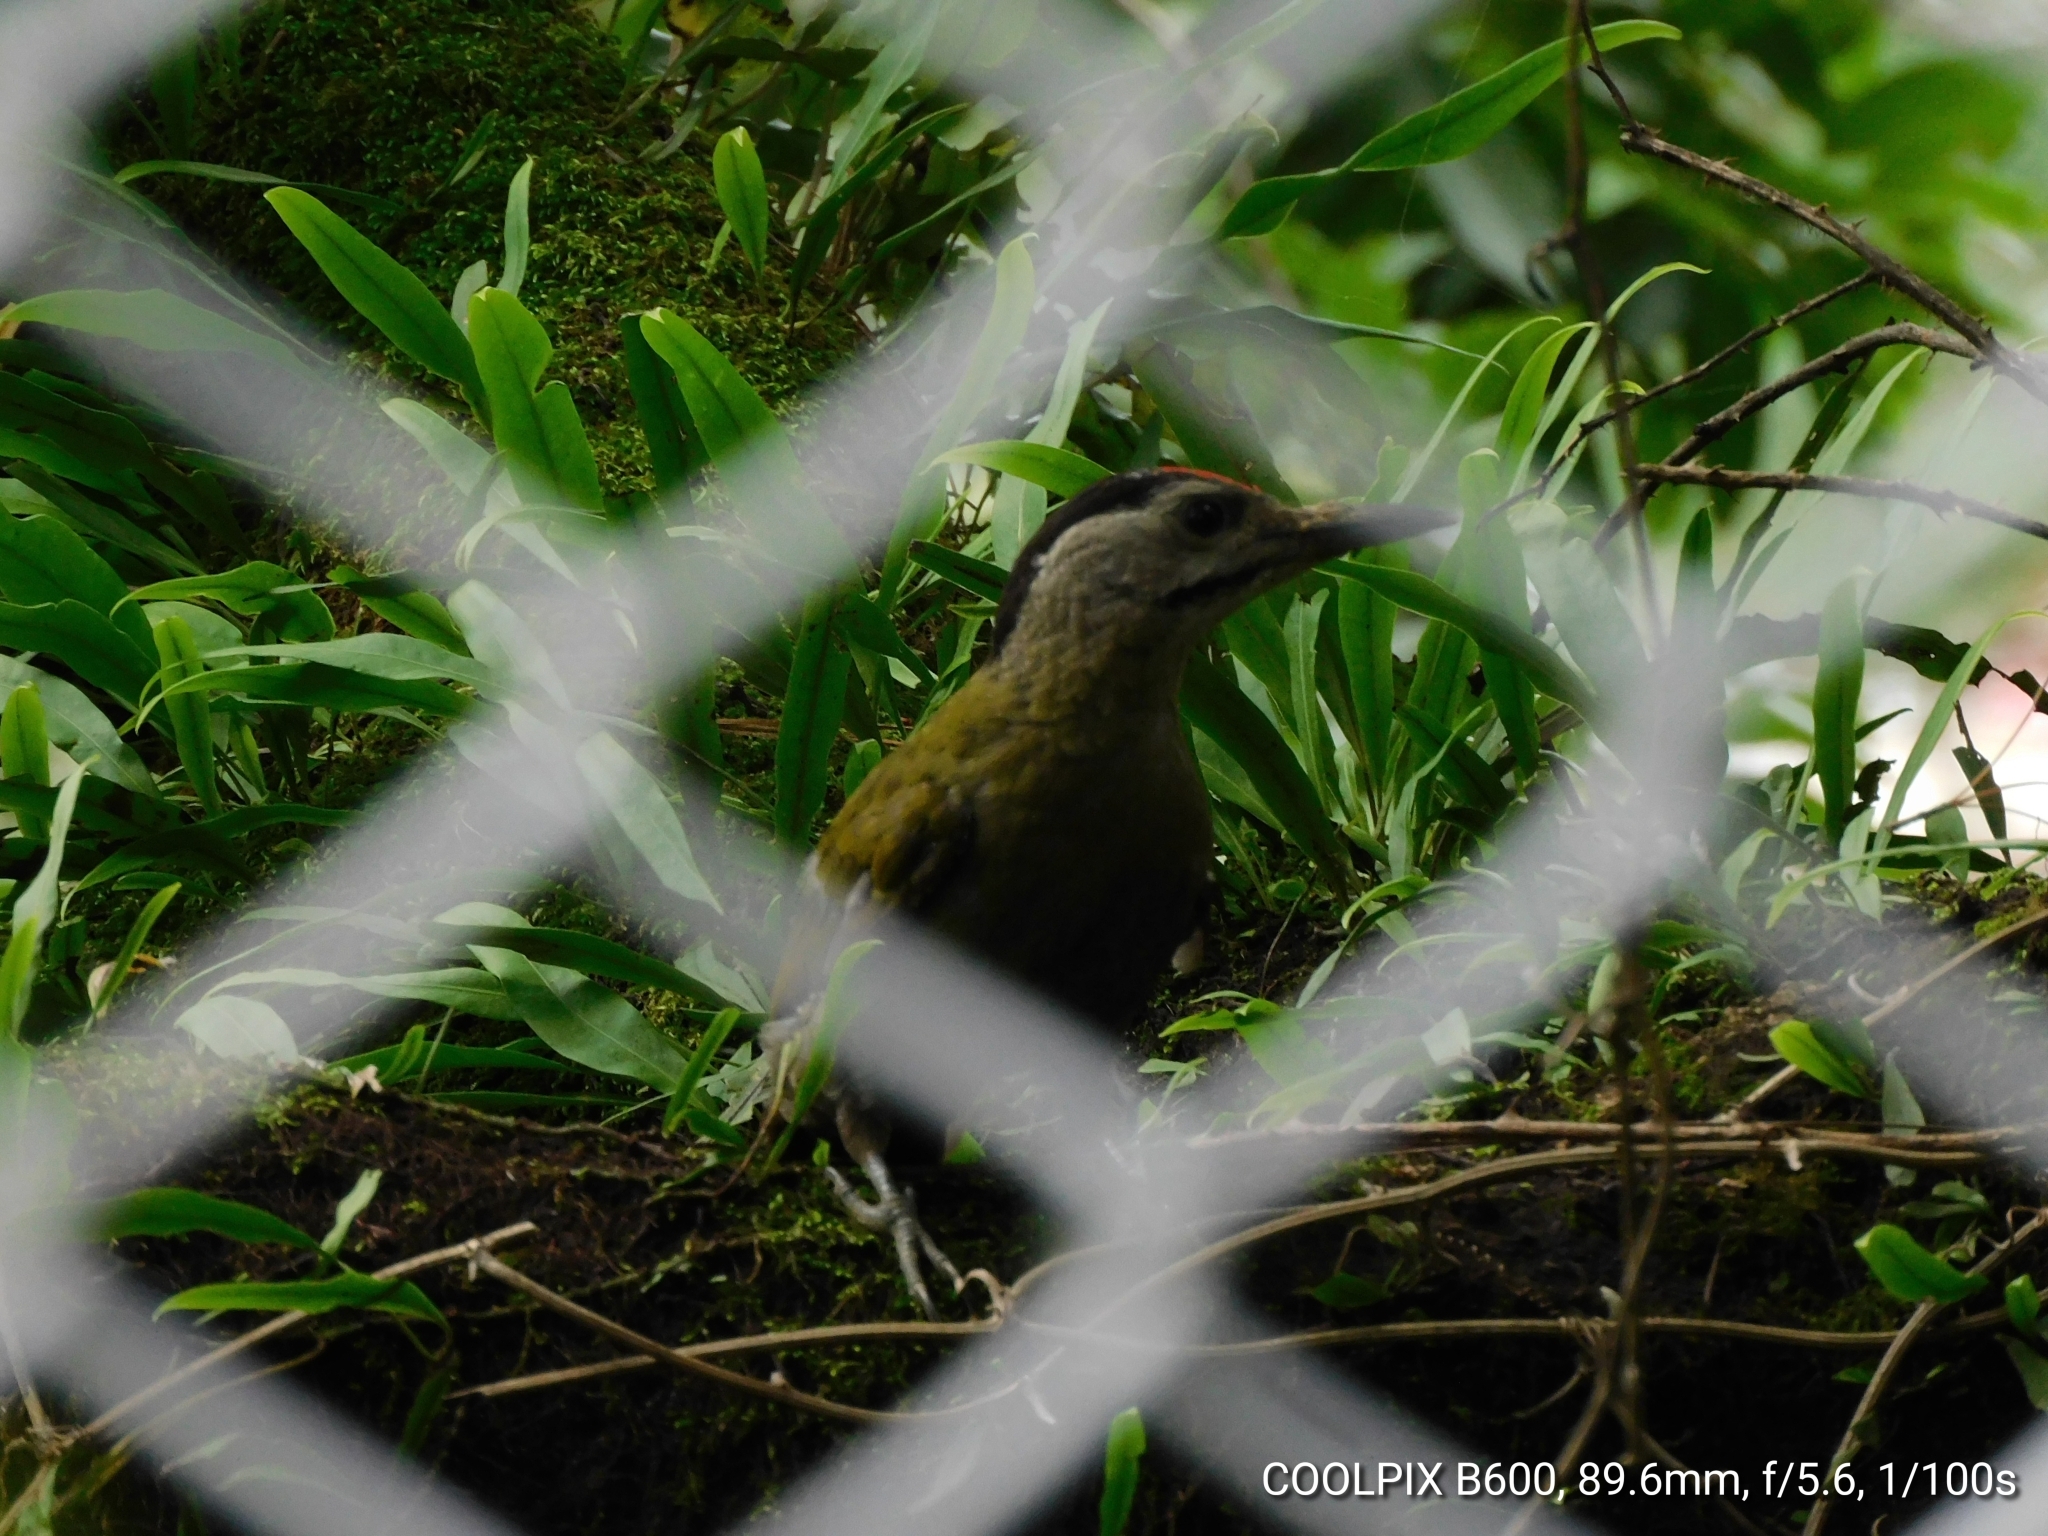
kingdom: Animalia
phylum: Chordata
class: Aves
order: Piciformes
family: Picidae
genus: Picus
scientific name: Picus canus
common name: Grey-headed woodpecker
